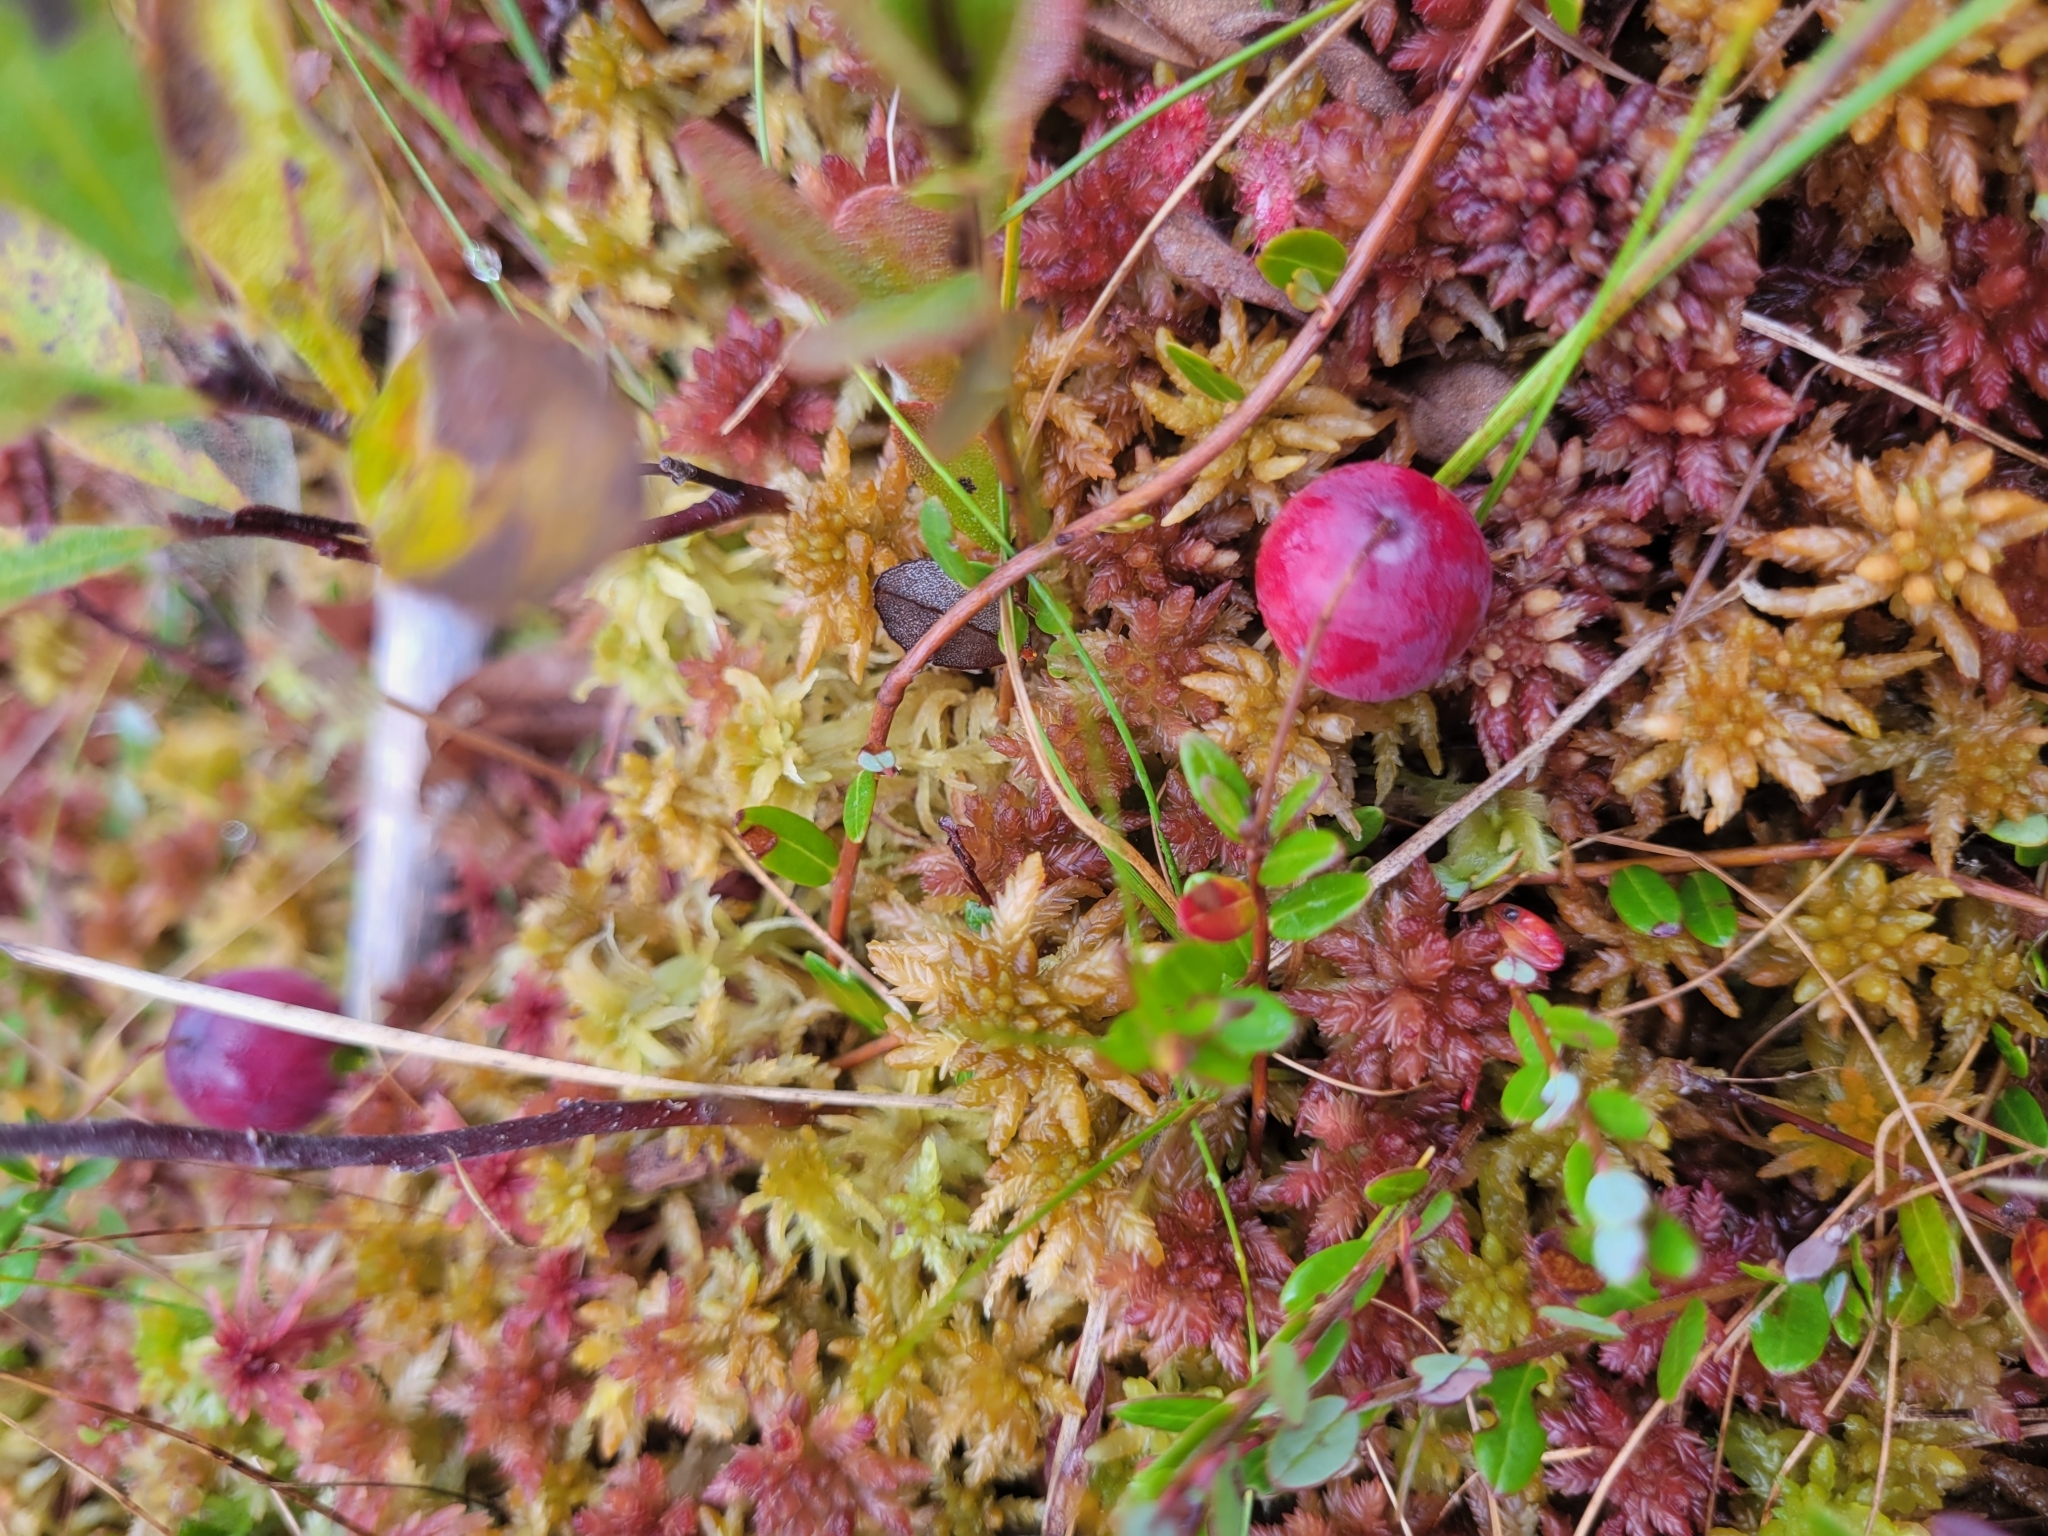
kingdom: Plantae
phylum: Tracheophyta
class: Magnoliopsida
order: Ericales
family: Ericaceae
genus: Vaccinium
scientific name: Vaccinium macrocarpon
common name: American cranberry
